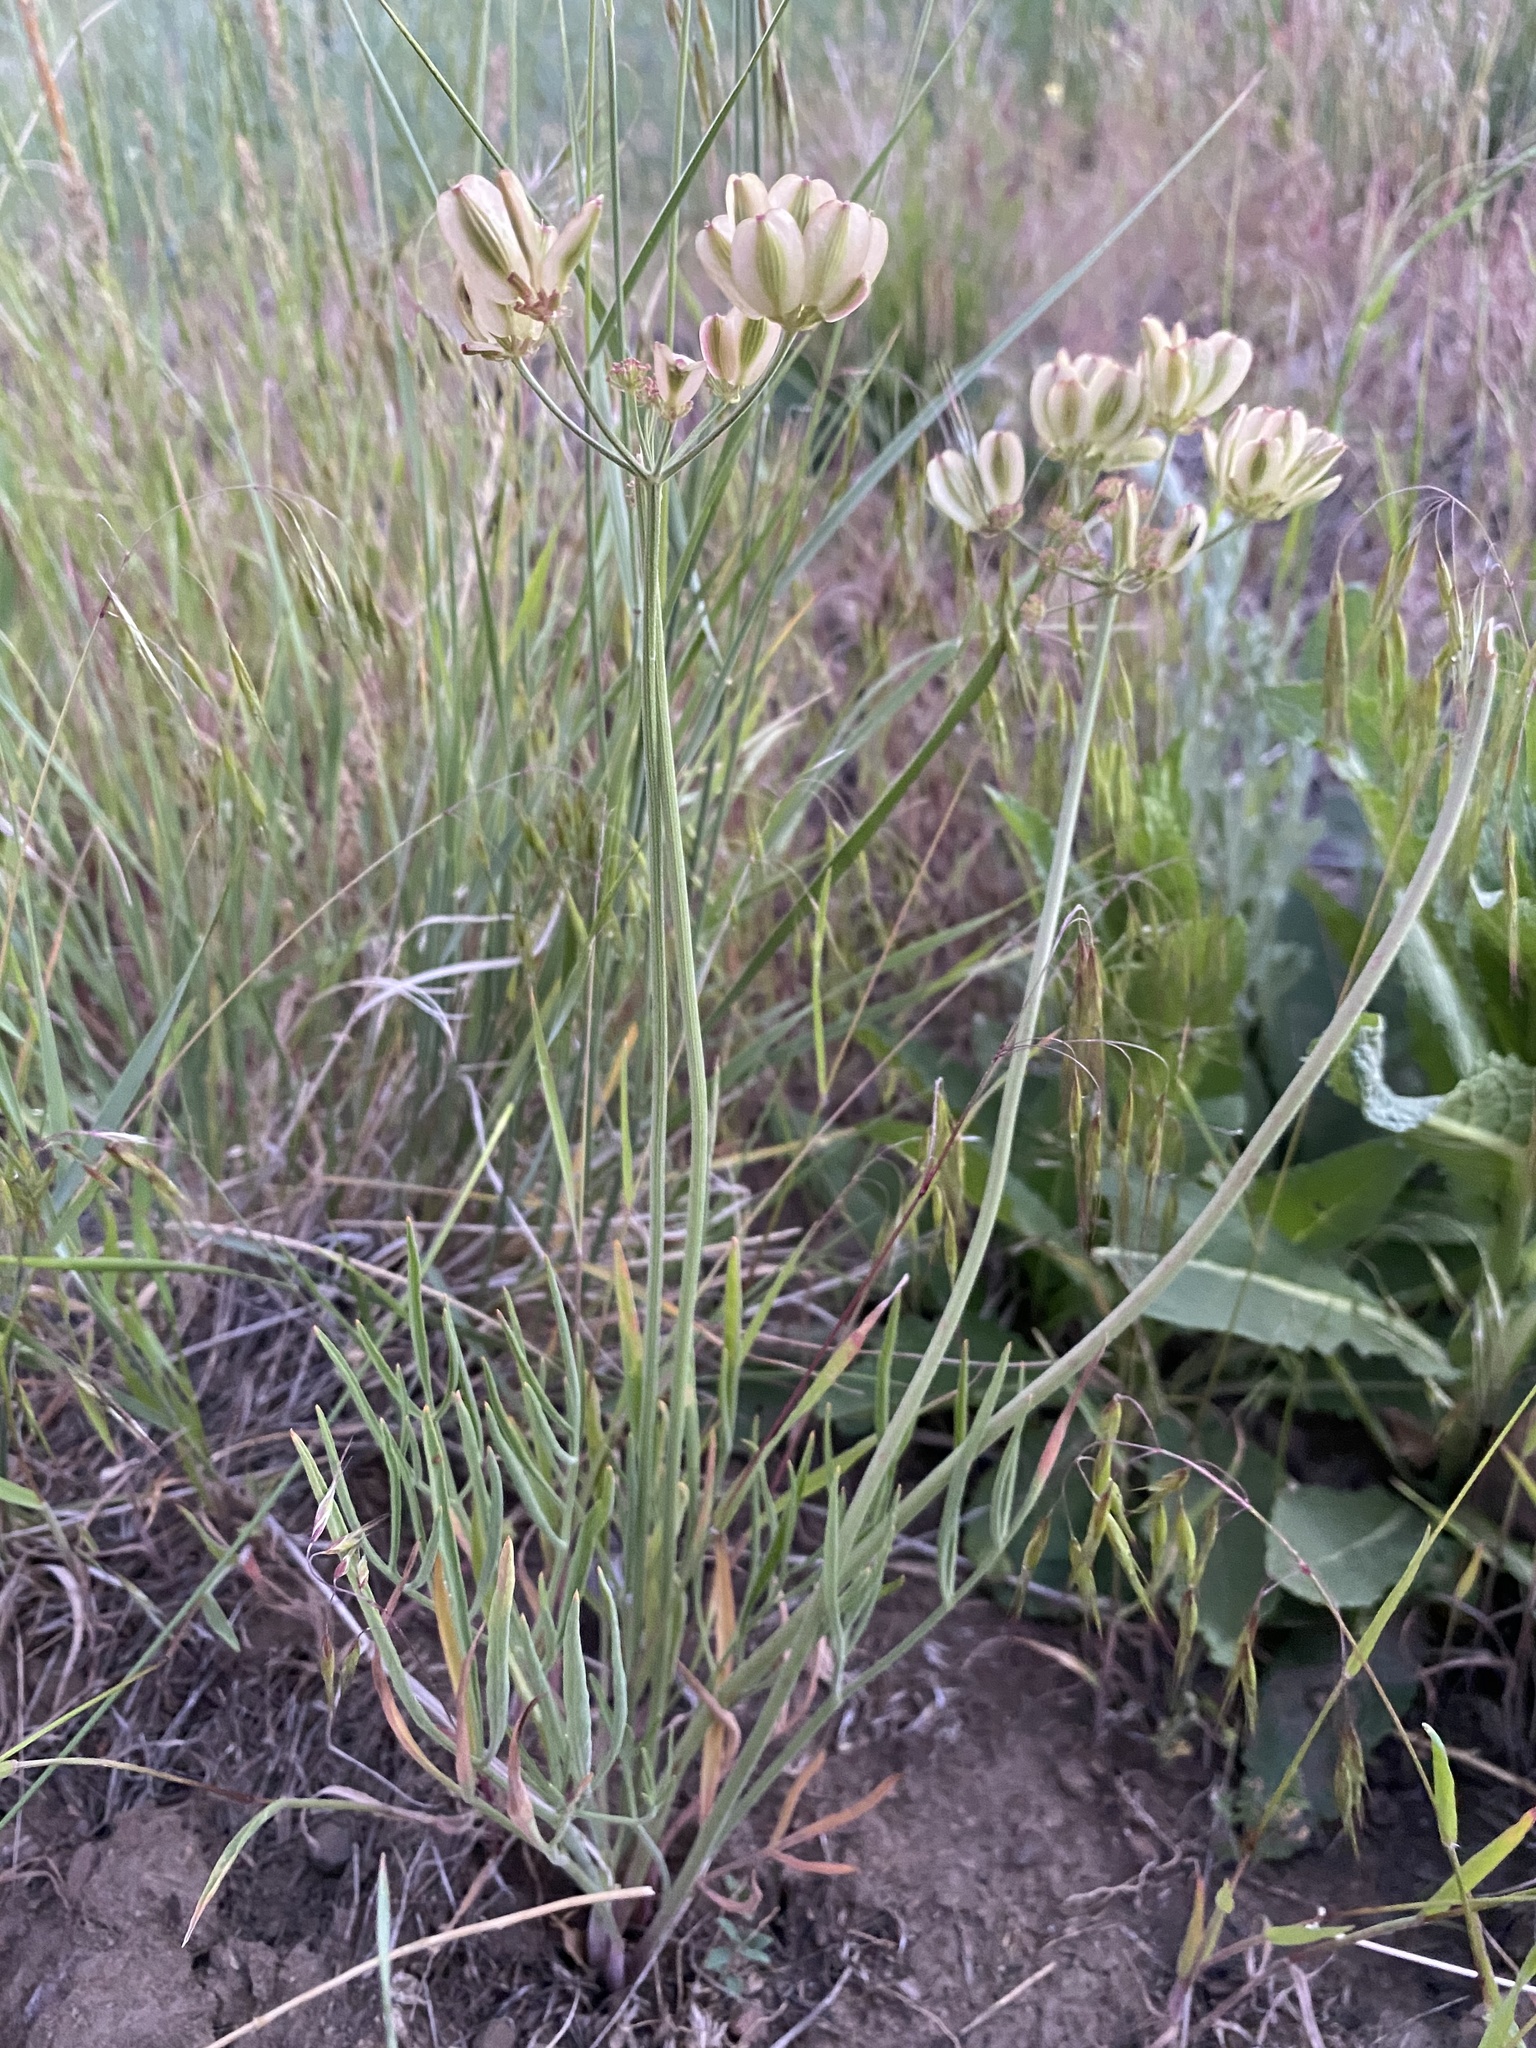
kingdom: Plantae
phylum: Tracheophyta
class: Magnoliopsida
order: Apiales
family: Apiaceae
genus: Lomatium
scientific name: Lomatium triternatum
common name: Ternate lomatium
